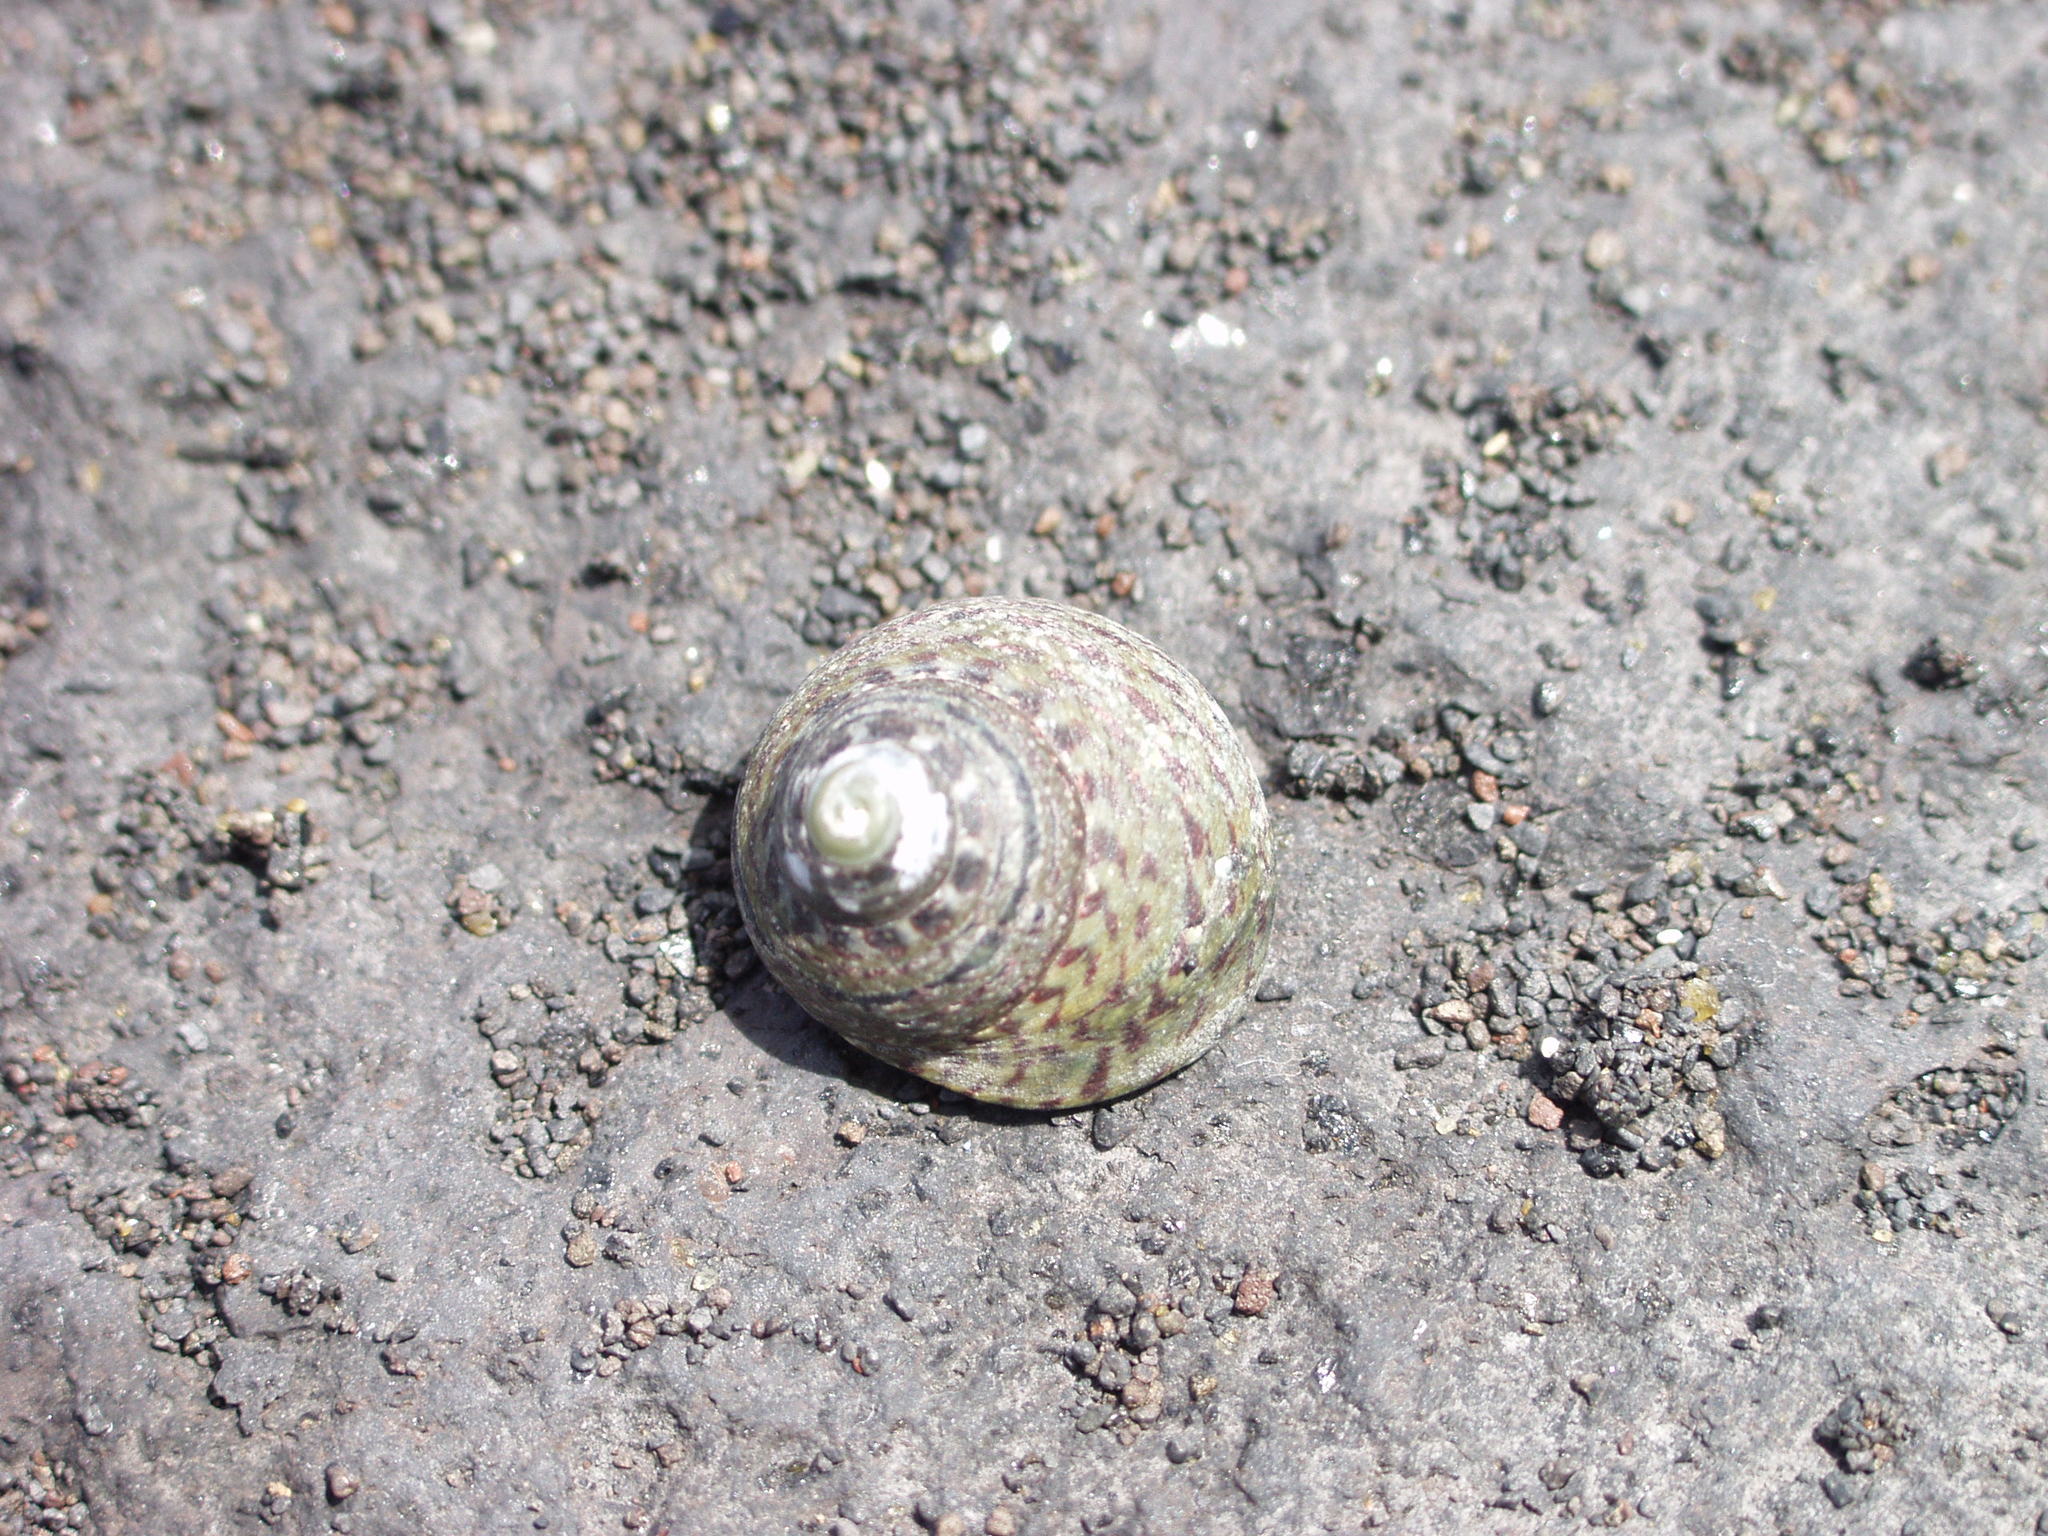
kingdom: Animalia
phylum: Mollusca
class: Gastropoda
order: Trochida
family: Trochidae
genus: Phorcus
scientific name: Phorcus sauciatus
